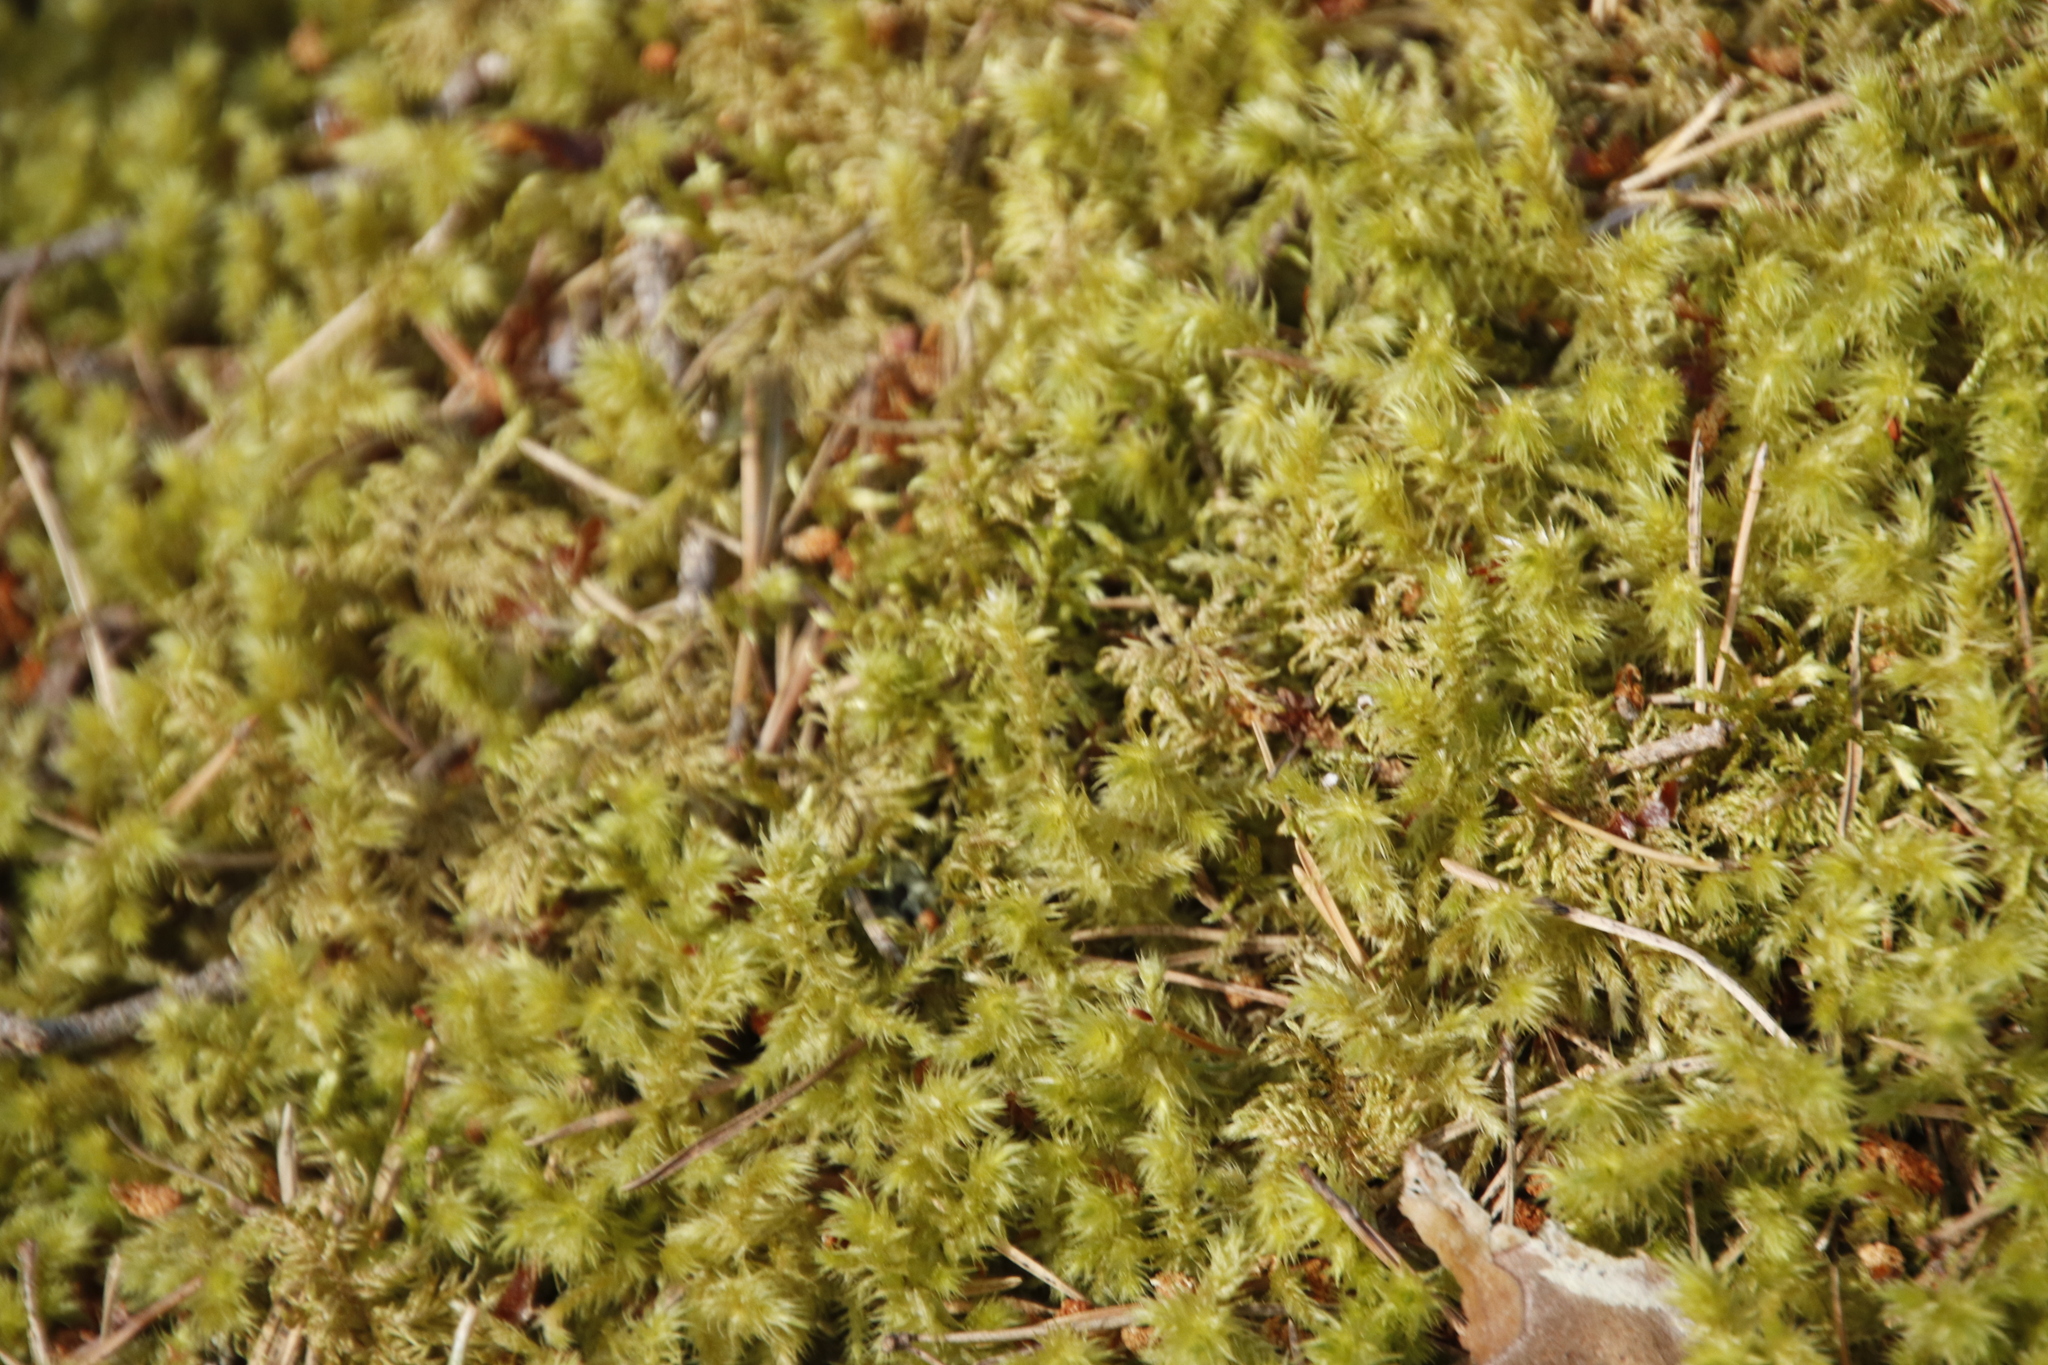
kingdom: Plantae
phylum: Bryophyta
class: Bryopsida
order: Hypnales
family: Hylocomiaceae
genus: Hylocomiadelphus
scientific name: Hylocomiadelphus triquetrus
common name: Rough goose neck moss
